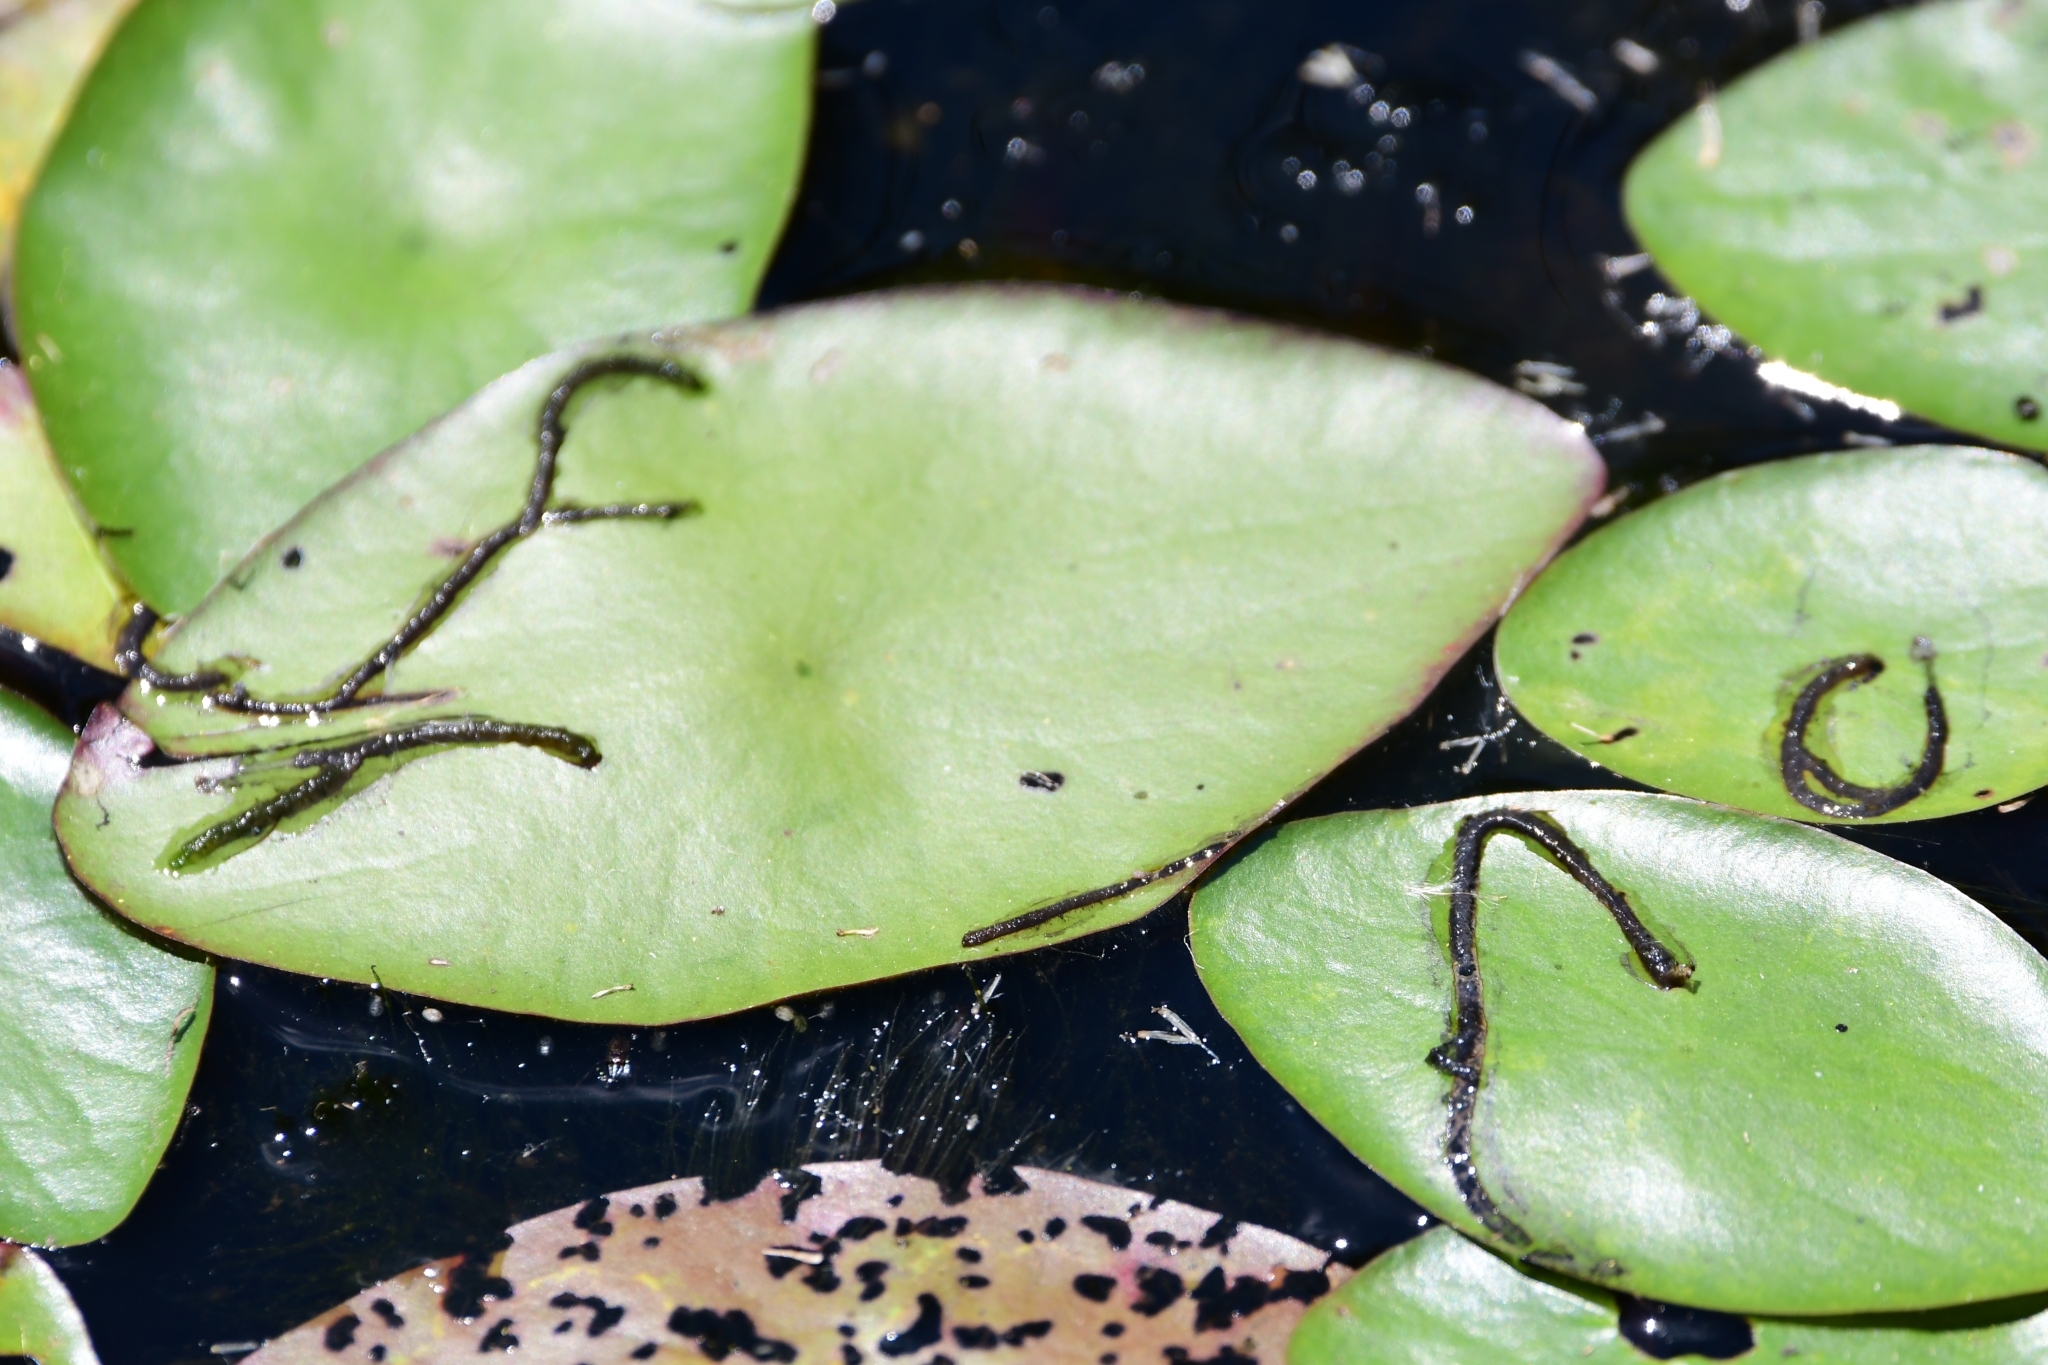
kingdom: Plantae
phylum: Tracheophyta
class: Magnoliopsida
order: Nymphaeales
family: Cabombaceae
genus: Brasenia
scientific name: Brasenia schreberi
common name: Water-shield
